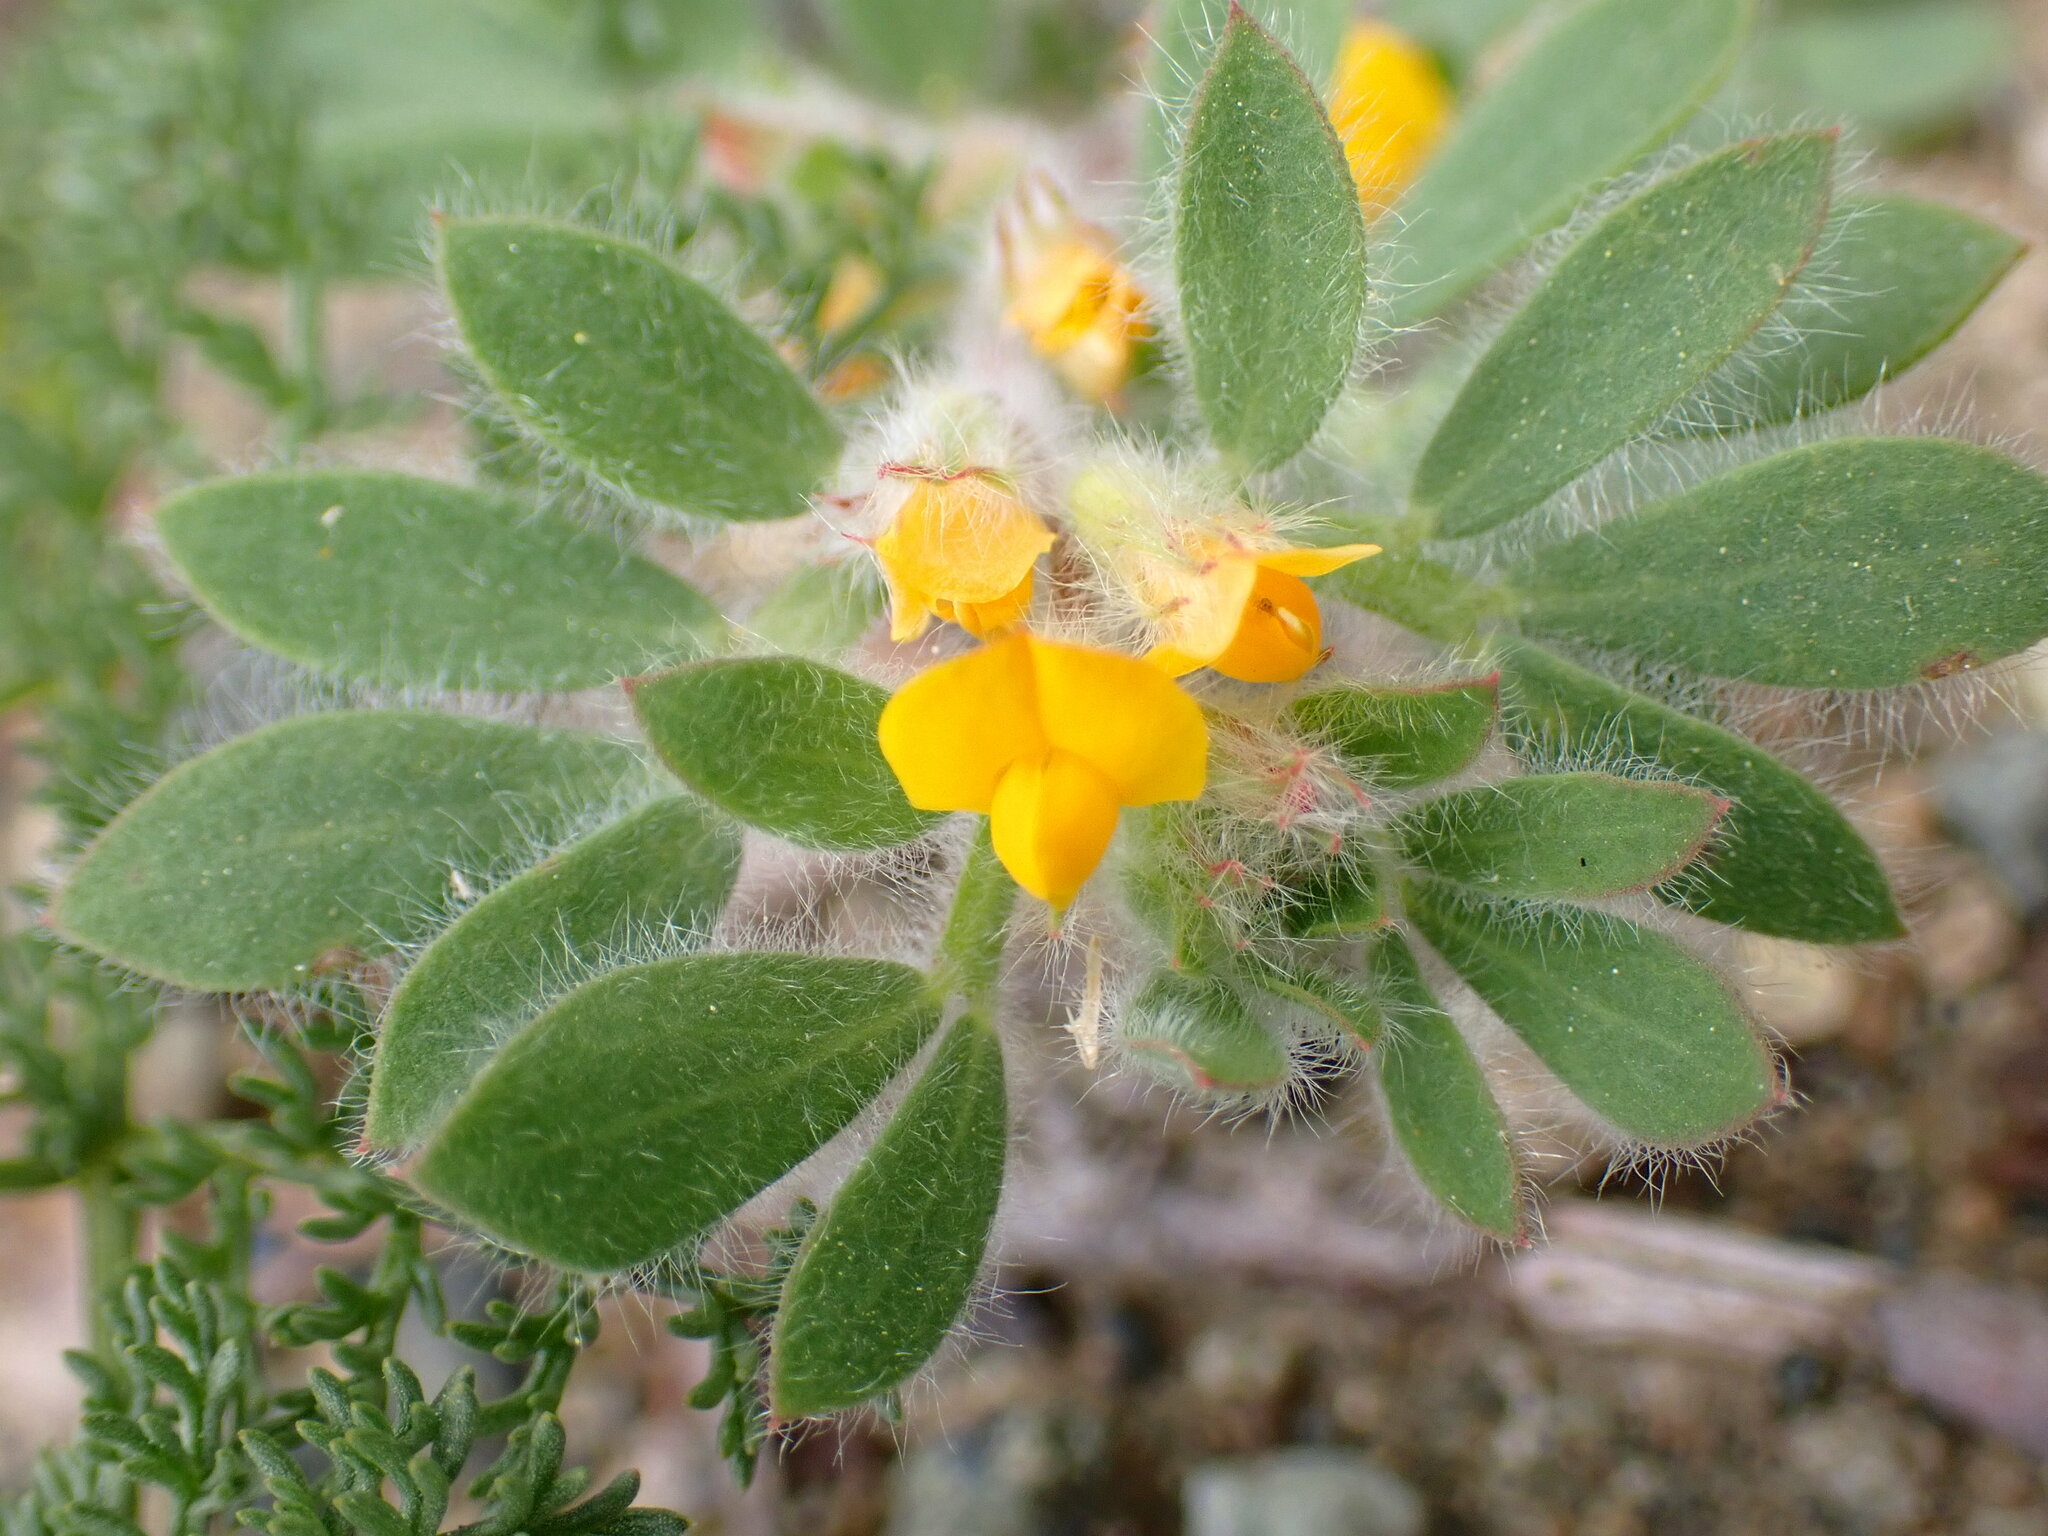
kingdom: Plantae
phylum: Tracheophyta
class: Magnoliopsida
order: Fabales
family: Fabaceae
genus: Acmispon
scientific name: Acmispon brachycarpus
